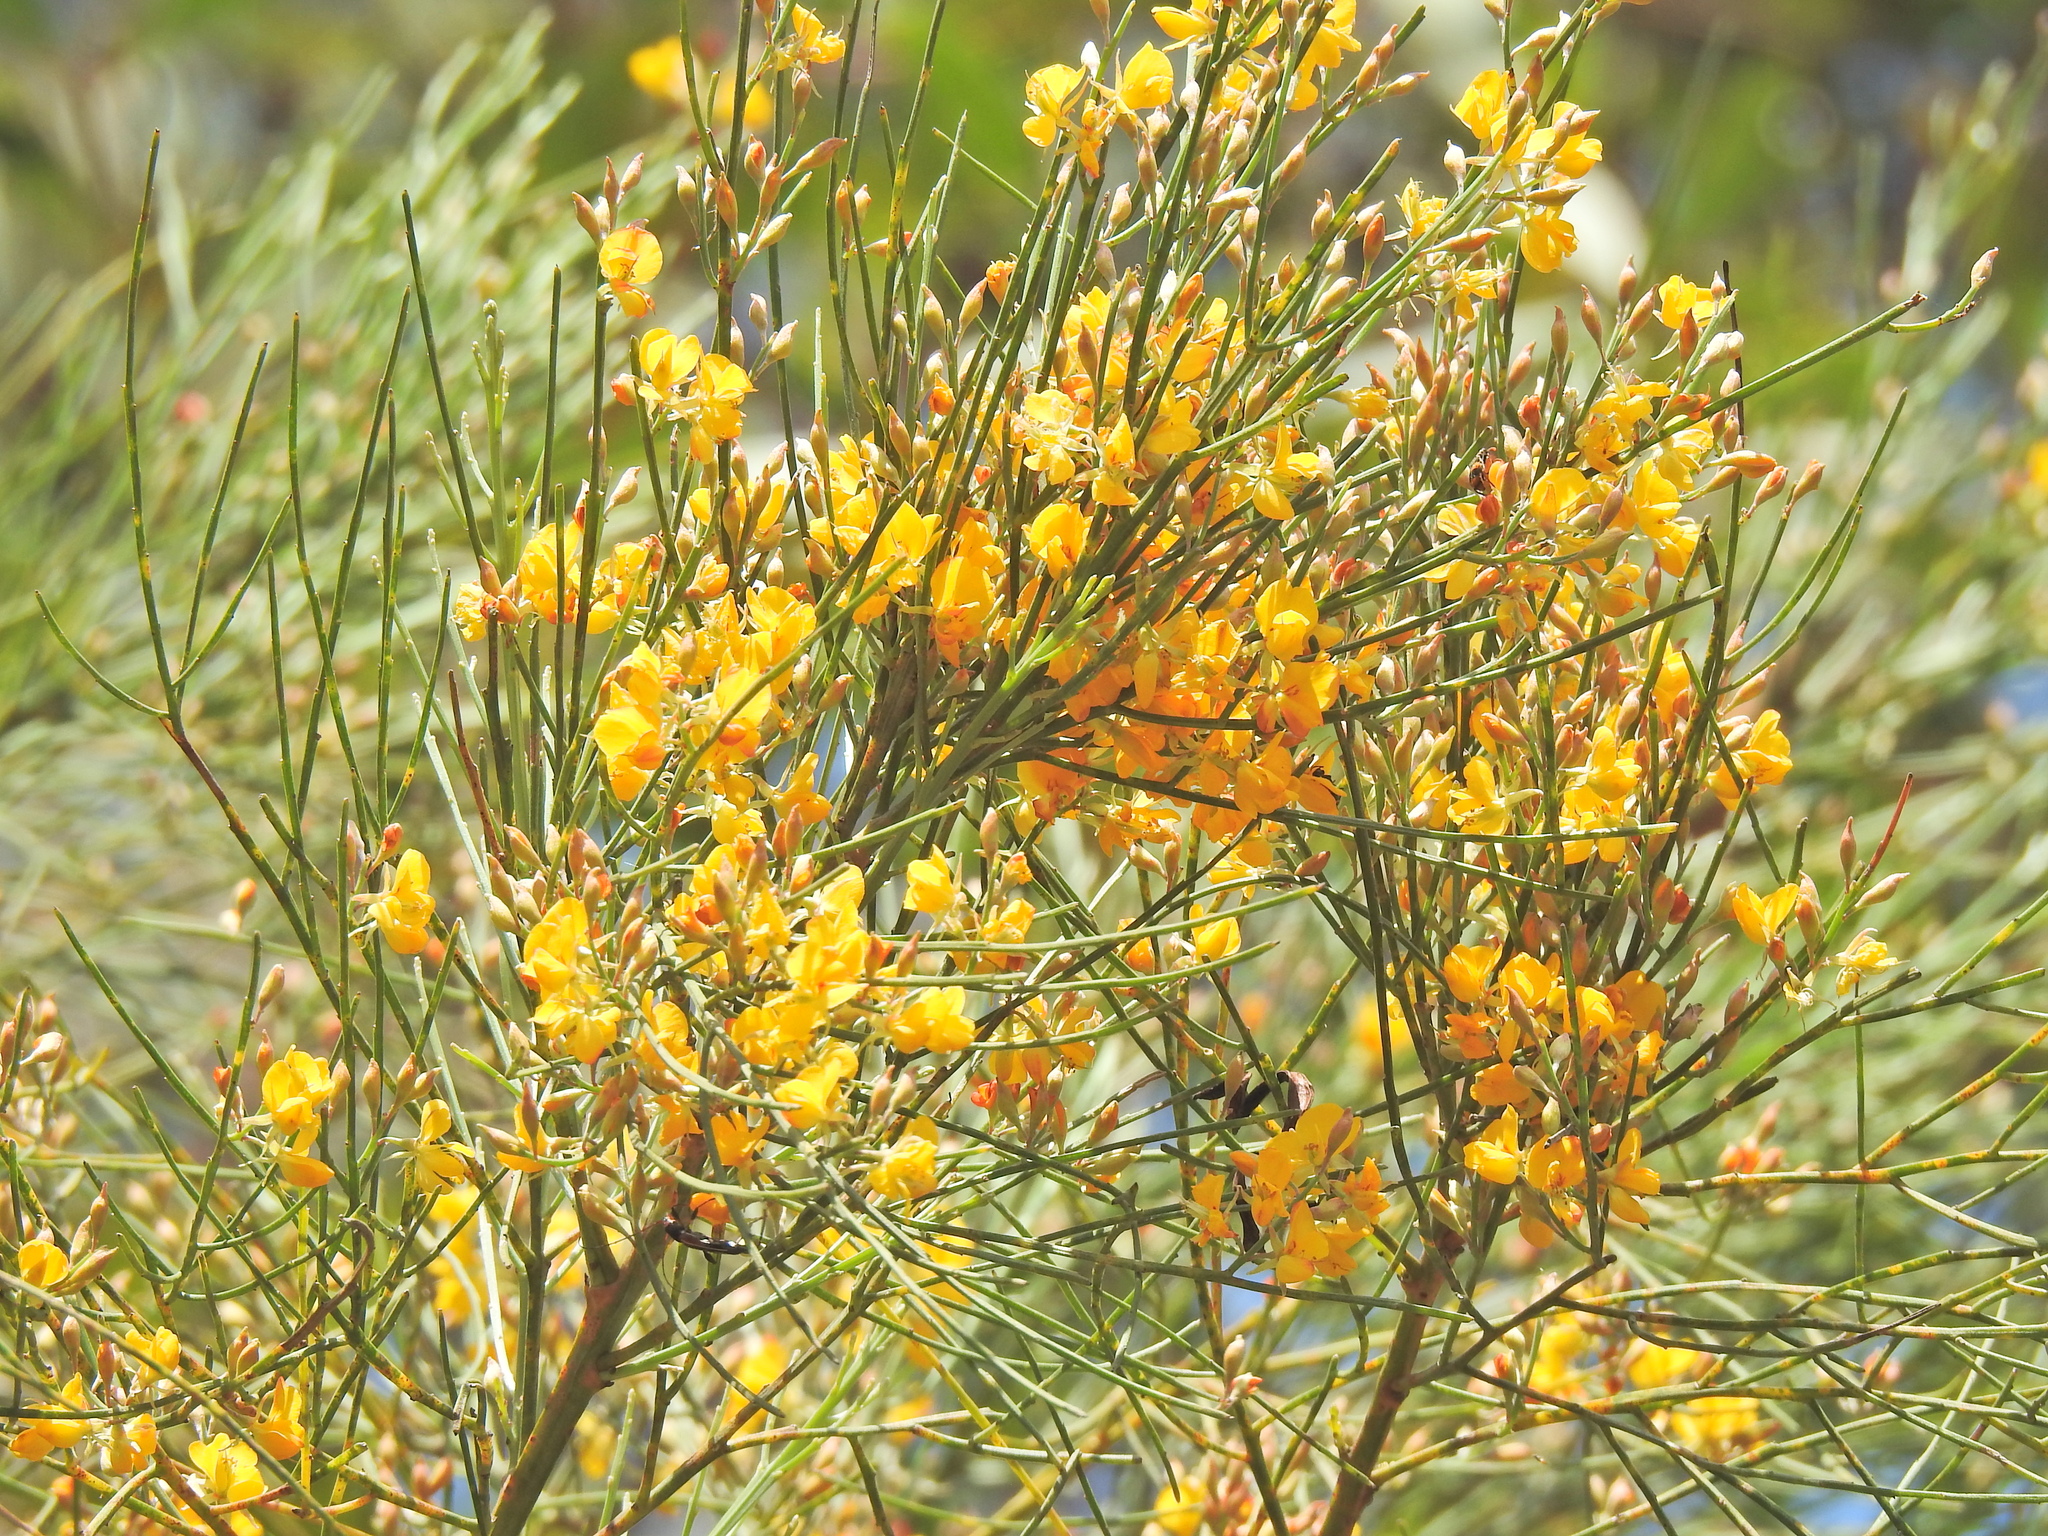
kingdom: Plantae
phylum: Tracheophyta
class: Magnoliopsida
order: Fabales
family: Fabaceae
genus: Jacksonia
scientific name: Jacksonia scoparia
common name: Dogwood
